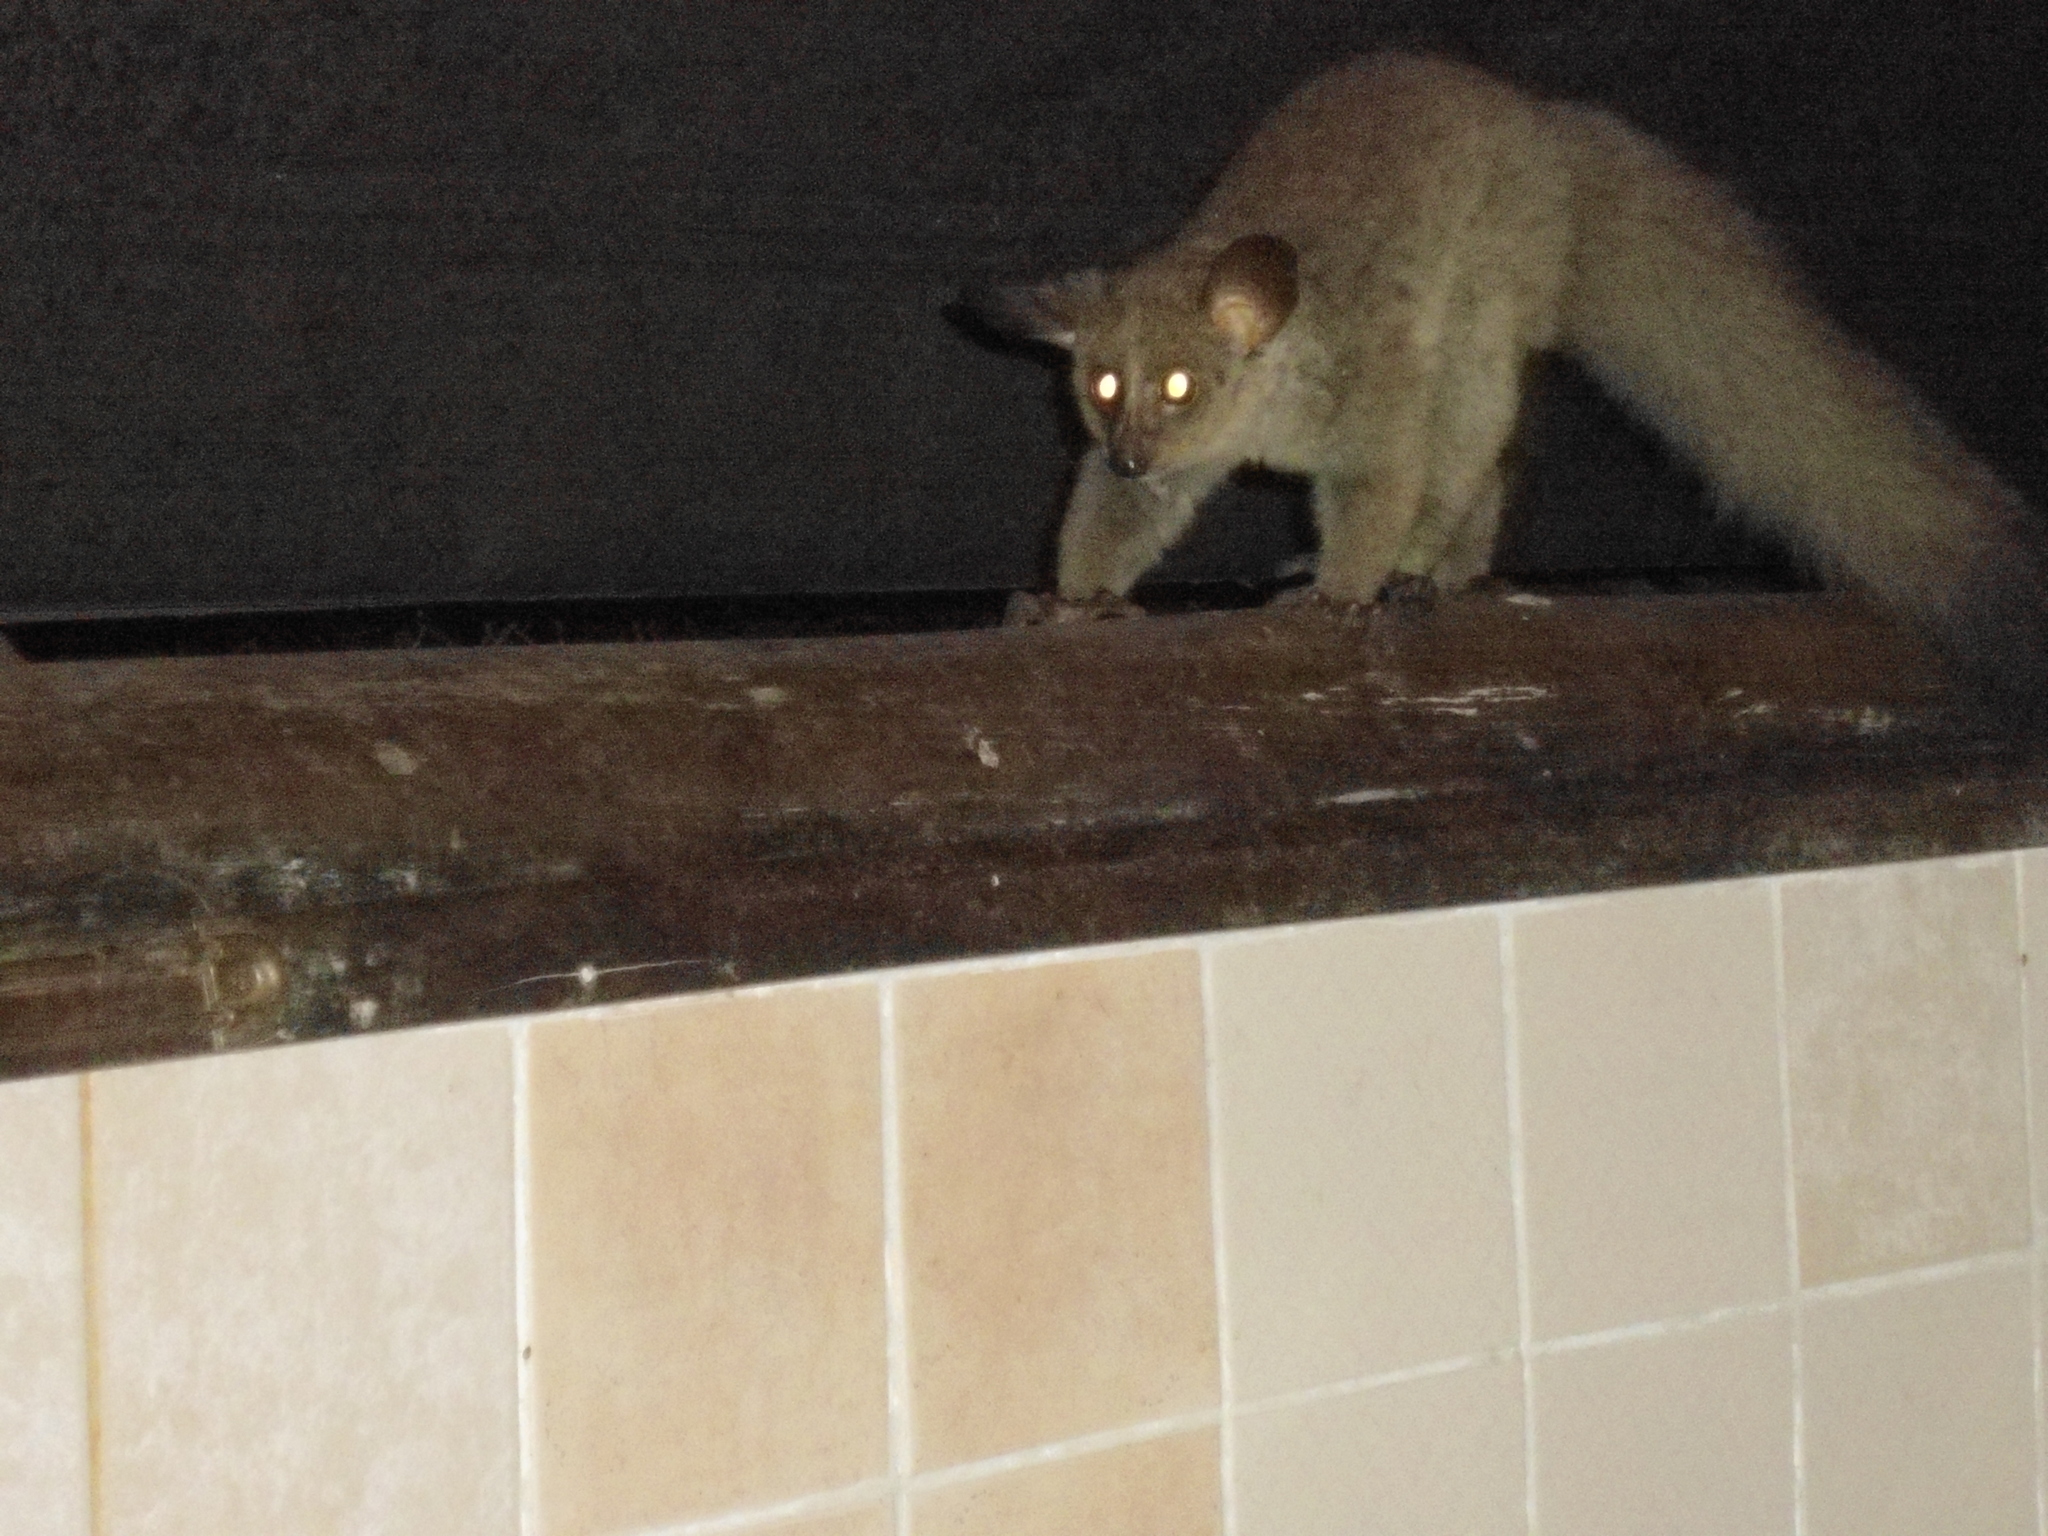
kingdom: Animalia
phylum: Chordata
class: Mammalia
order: Primates
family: Galagidae
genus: Otolemur
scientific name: Otolemur crassicaudatus
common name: Brown greater galago
